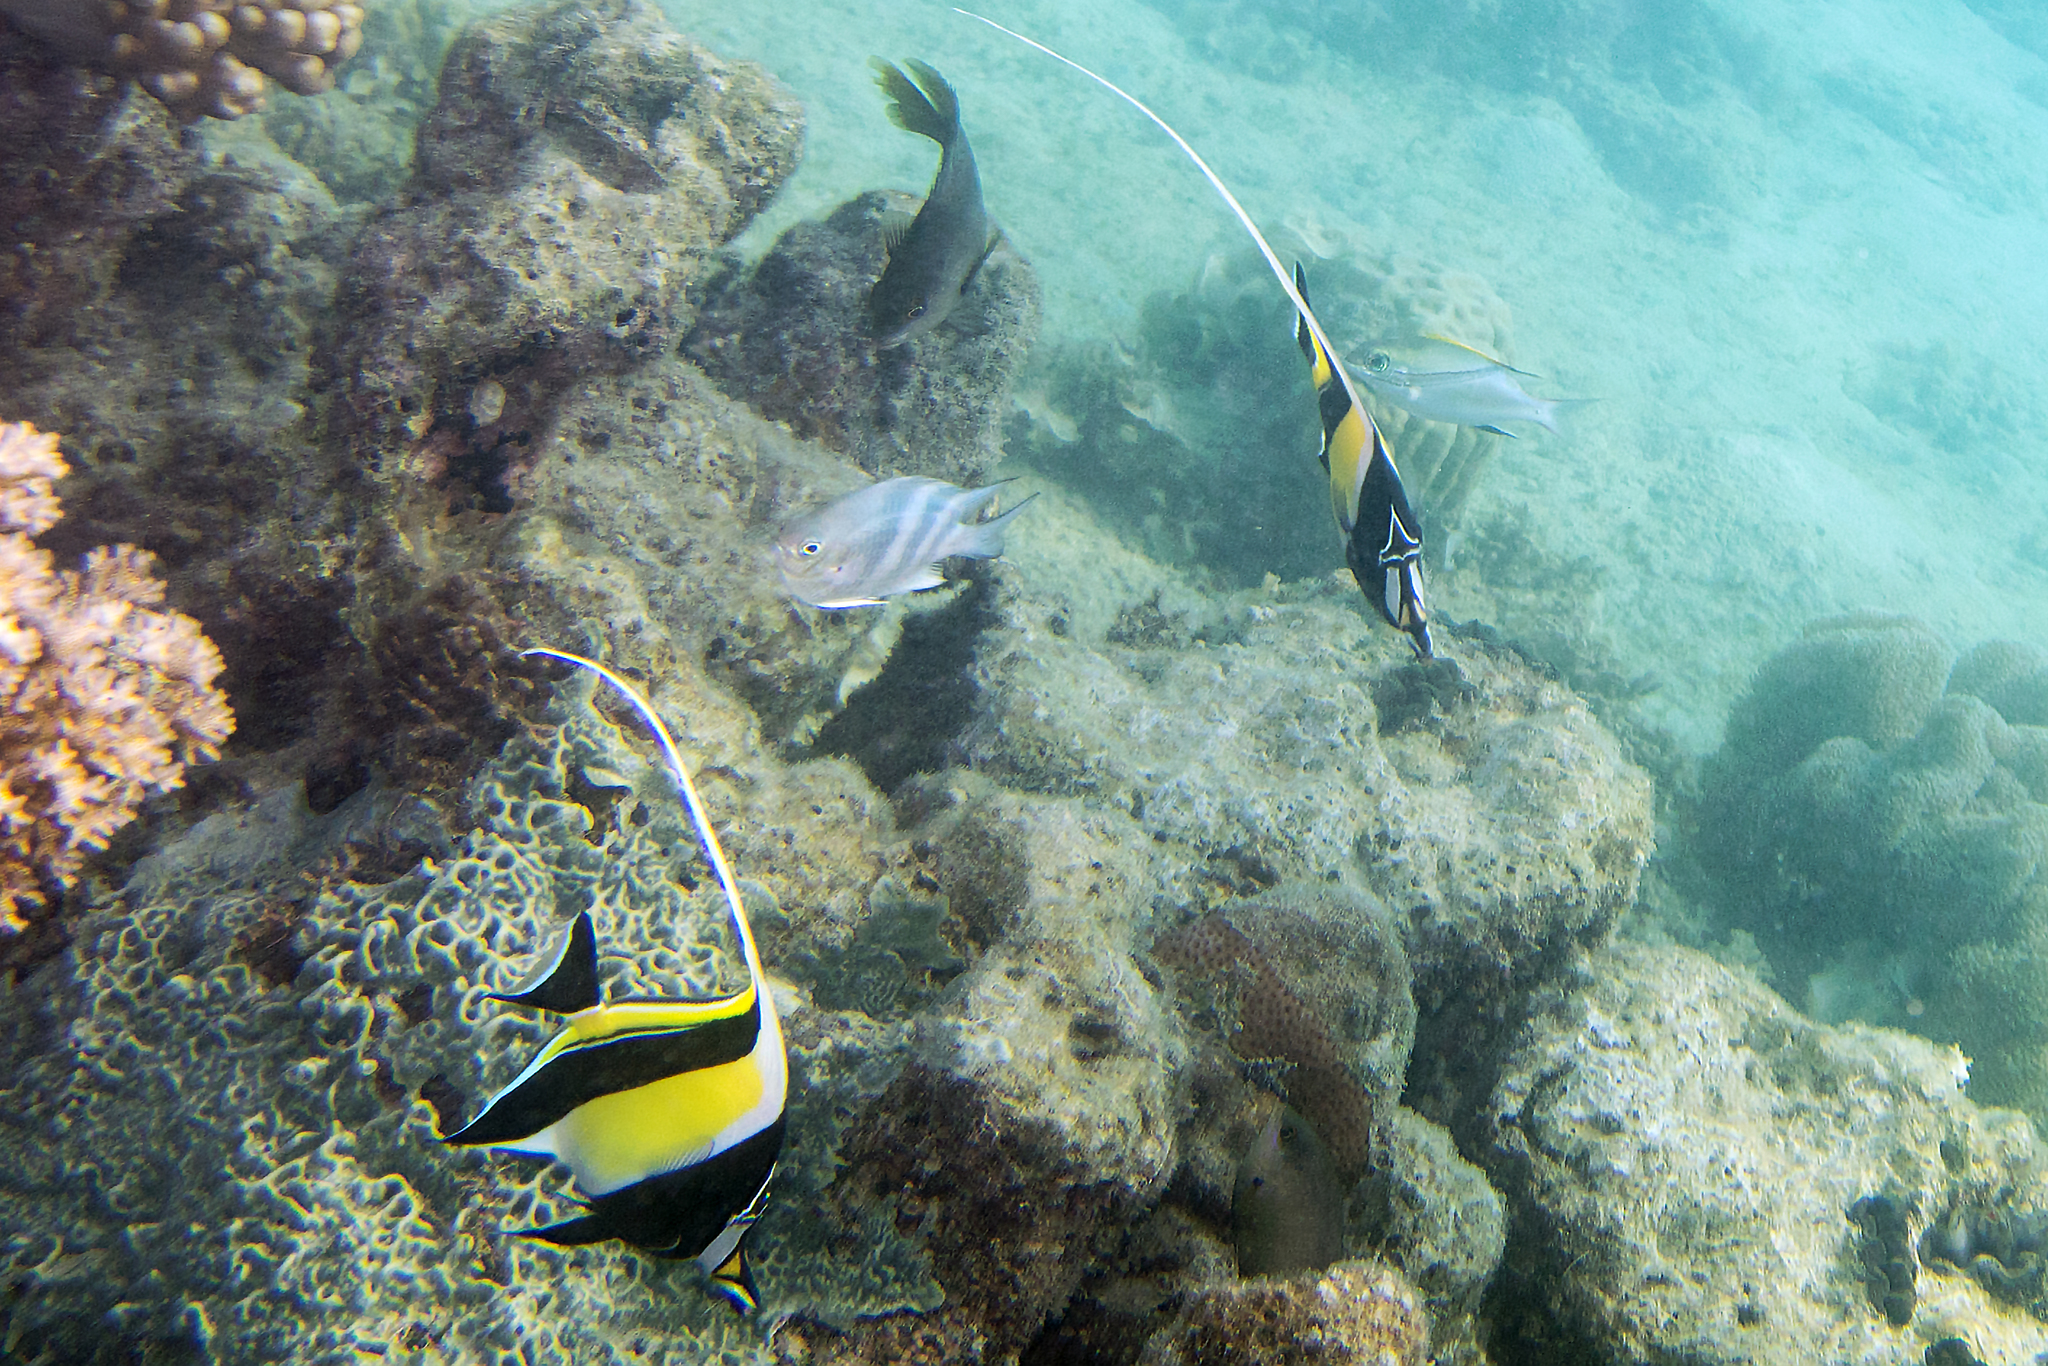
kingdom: Animalia
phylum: Chordata
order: Perciformes
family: Zanclidae
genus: Zanclus
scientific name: Zanclus cornutus
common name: Moorish idol
